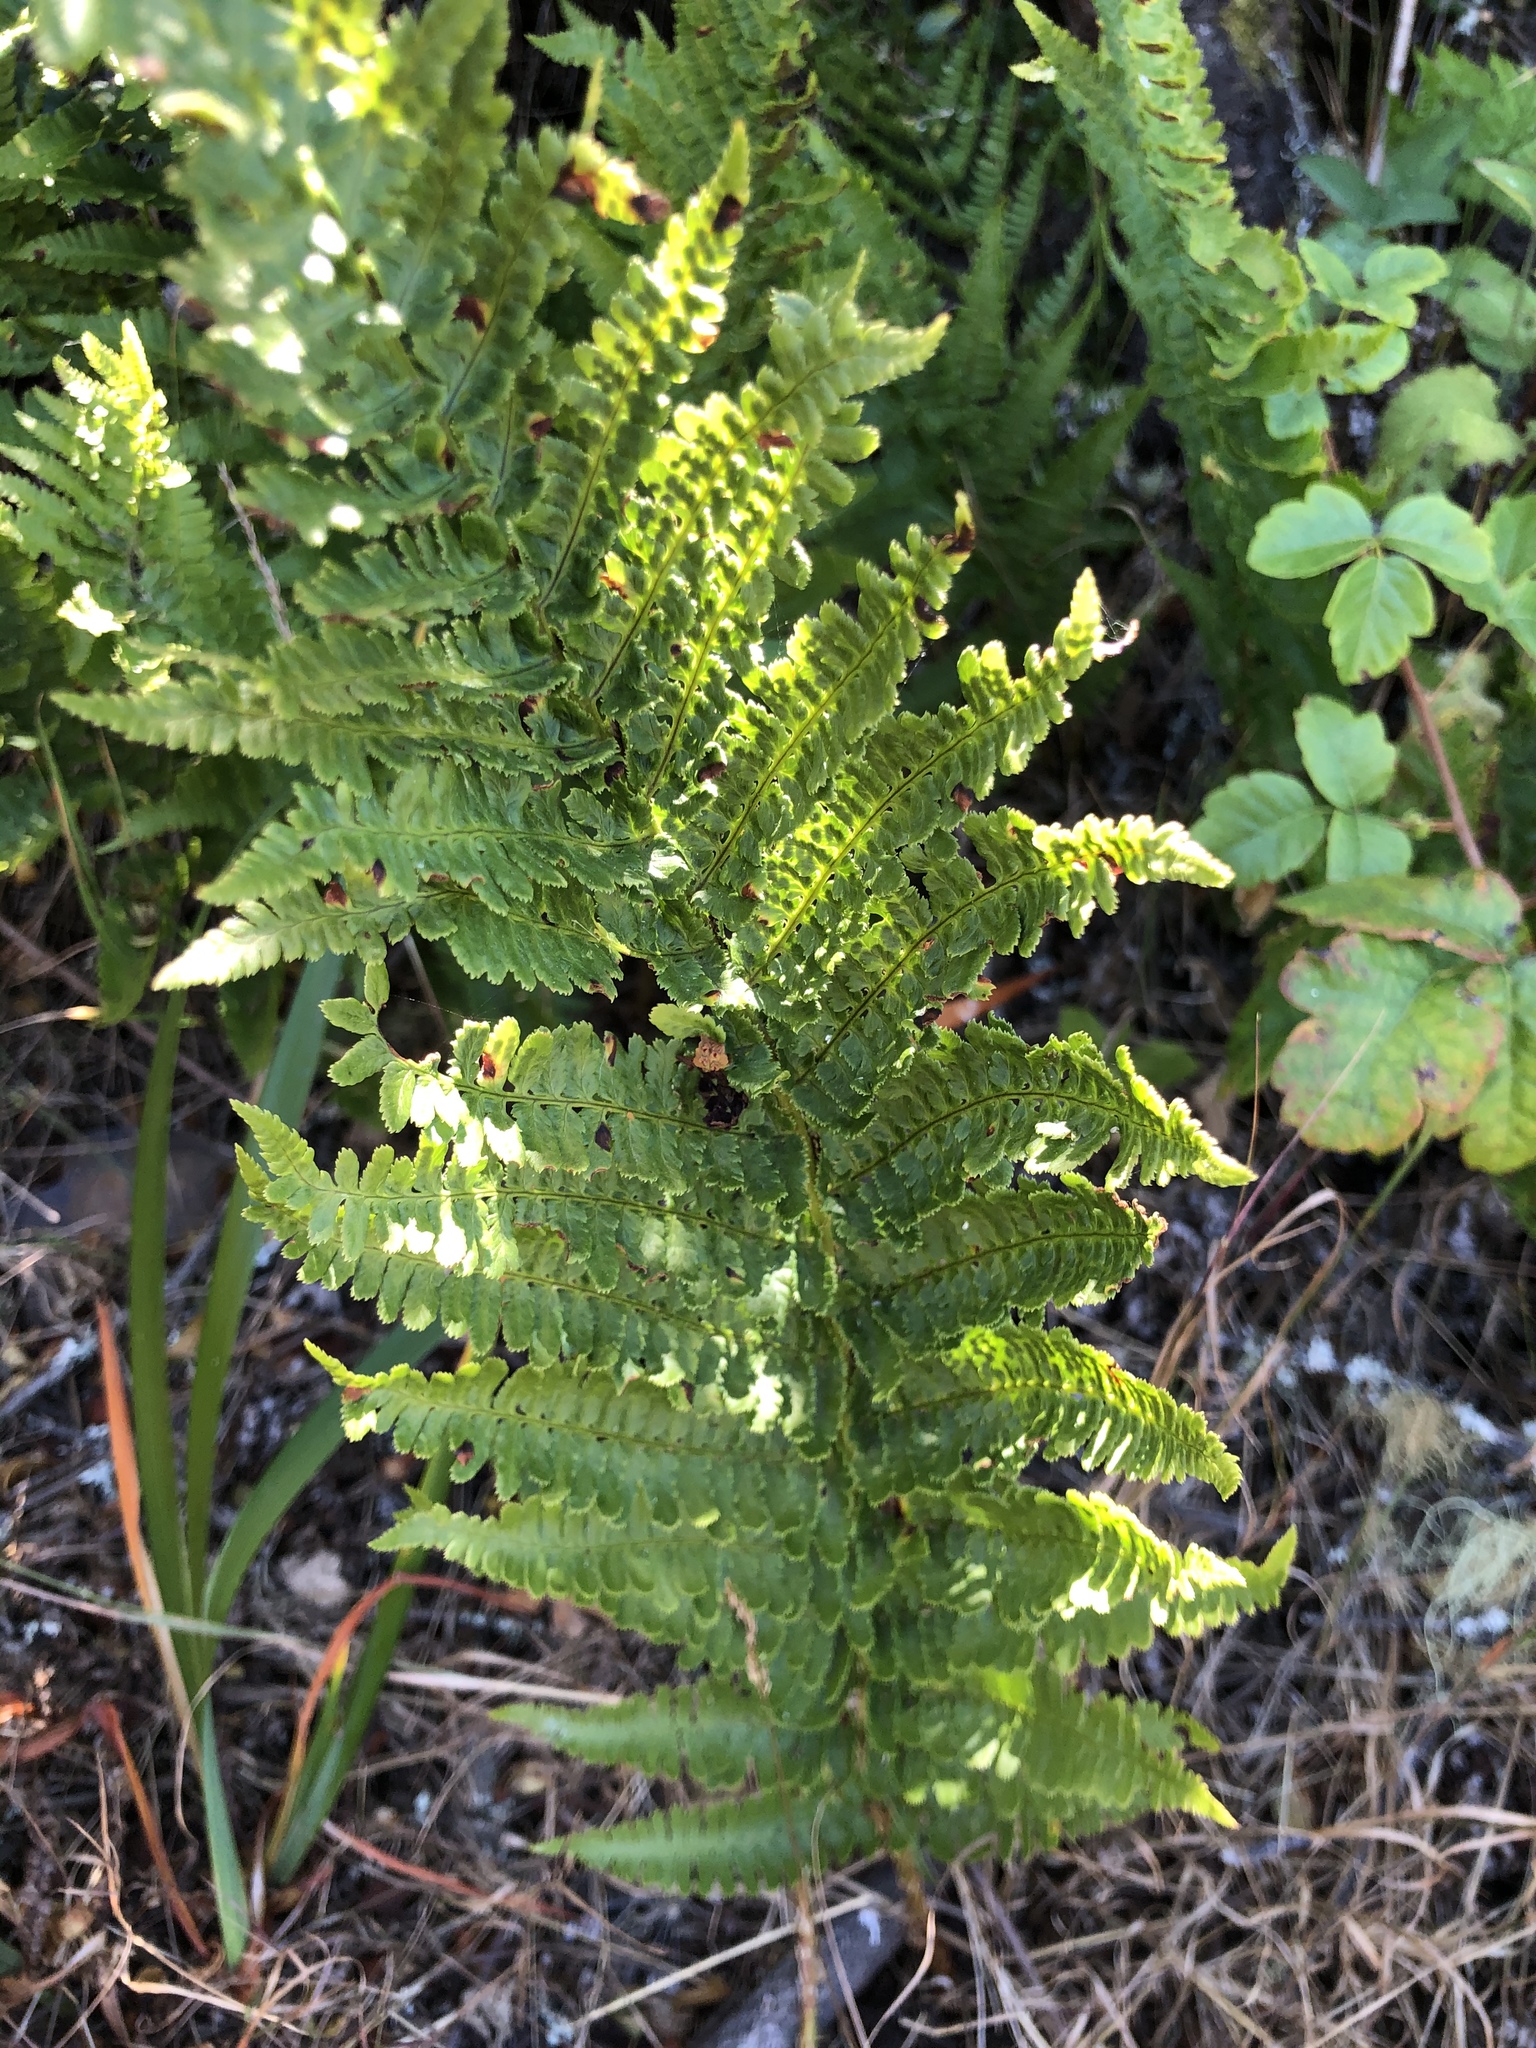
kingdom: Plantae
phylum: Tracheophyta
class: Polypodiopsida
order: Polypodiales
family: Dryopteridaceae
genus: Dryopteris
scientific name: Dryopteris arguta
